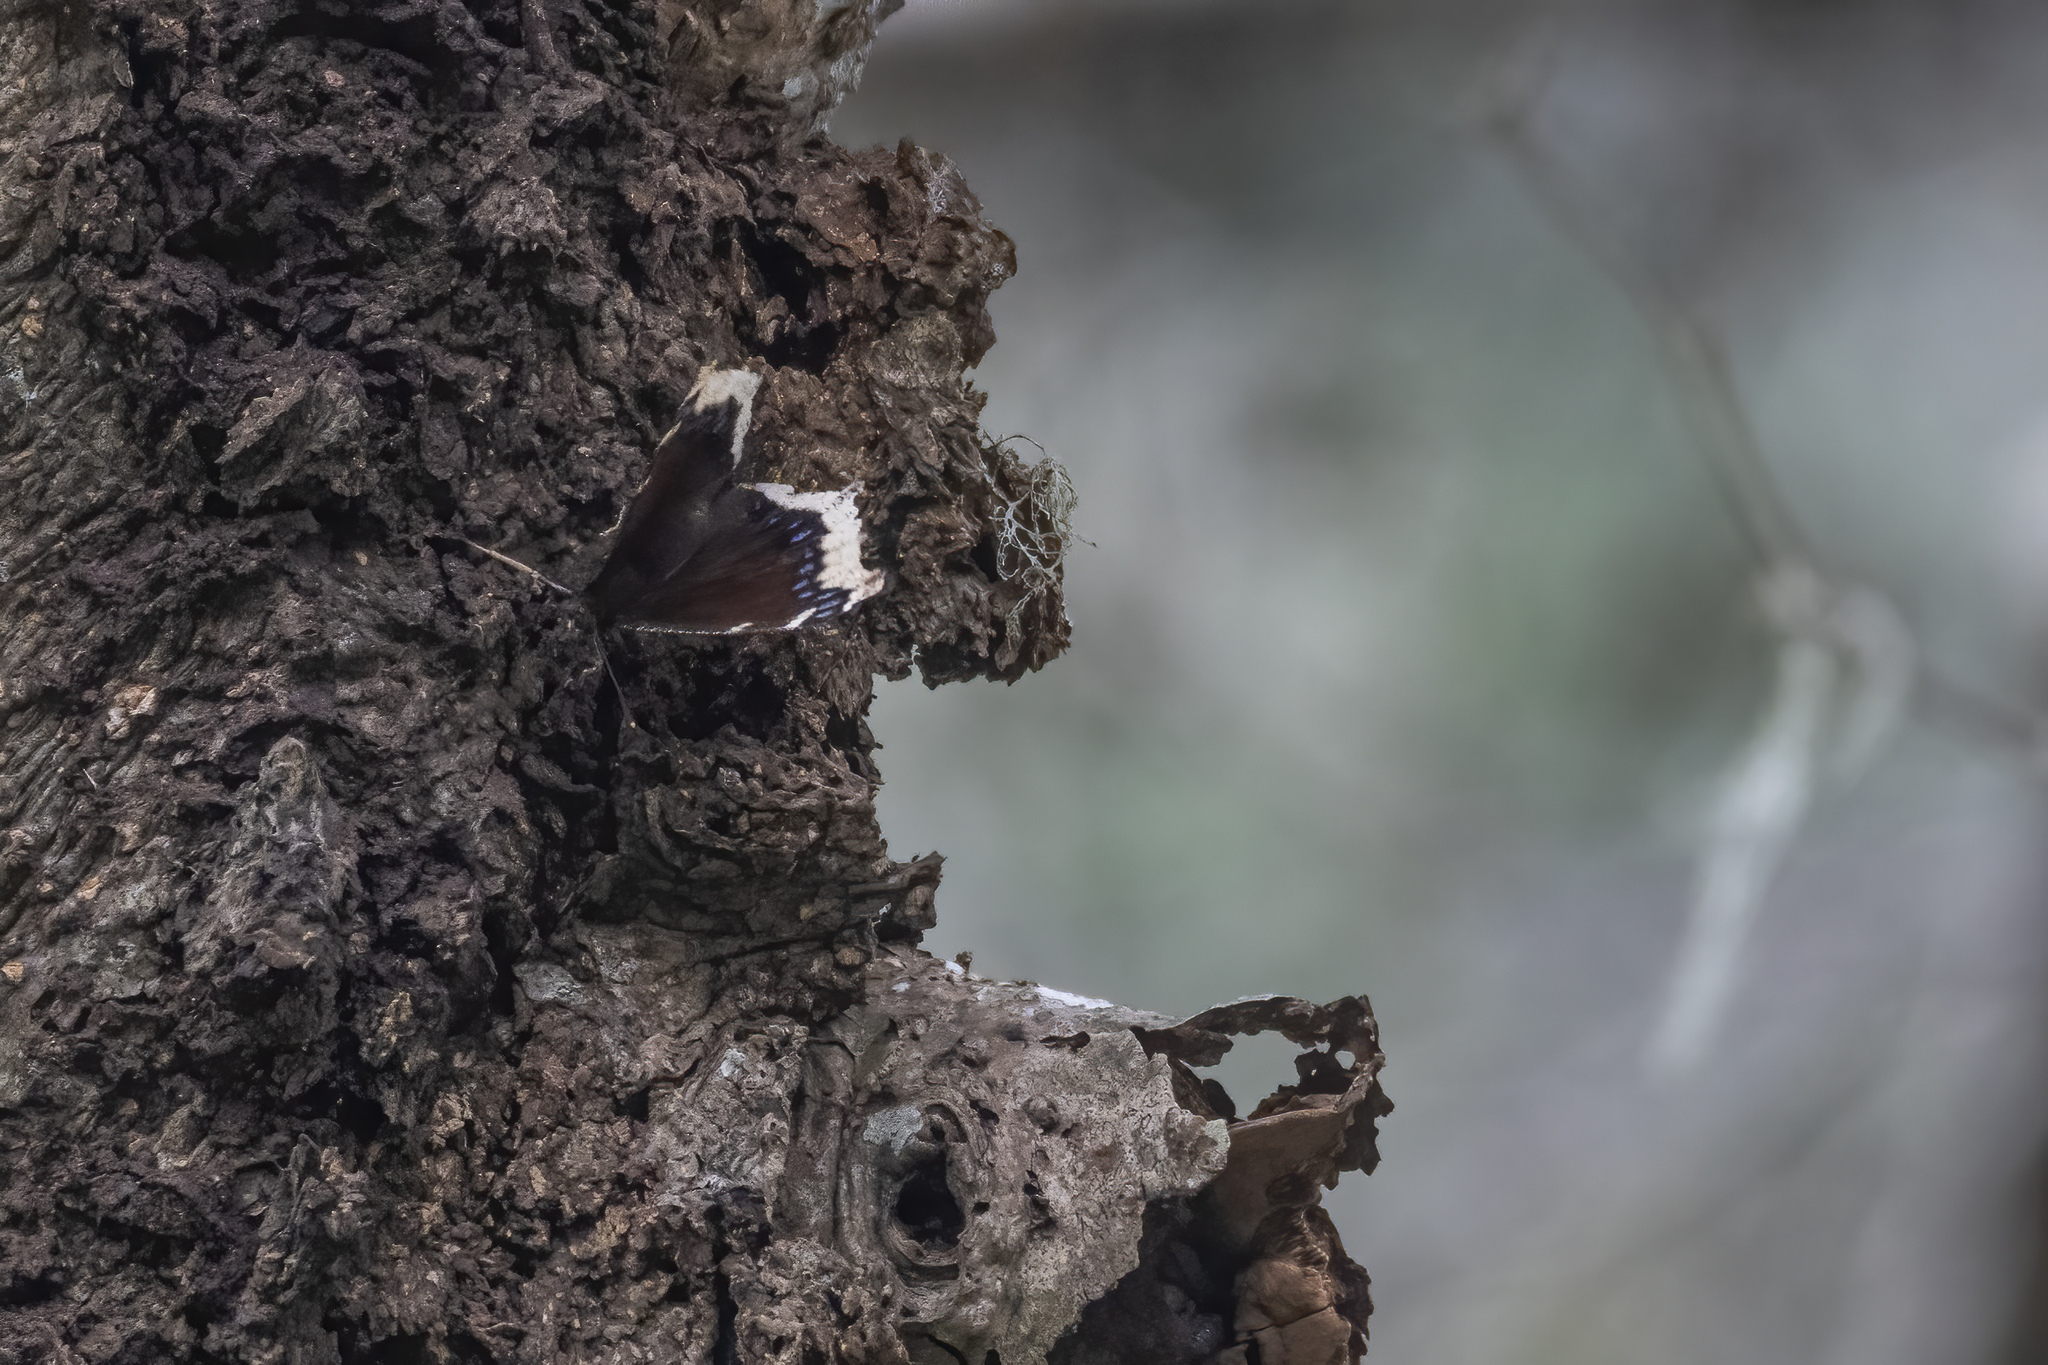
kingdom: Animalia
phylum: Arthropoda
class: Insecta
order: Lepidoptera
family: Nymphalidae
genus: Nymphalis
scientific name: Nymphalis antiopa
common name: Camberwell beauty
